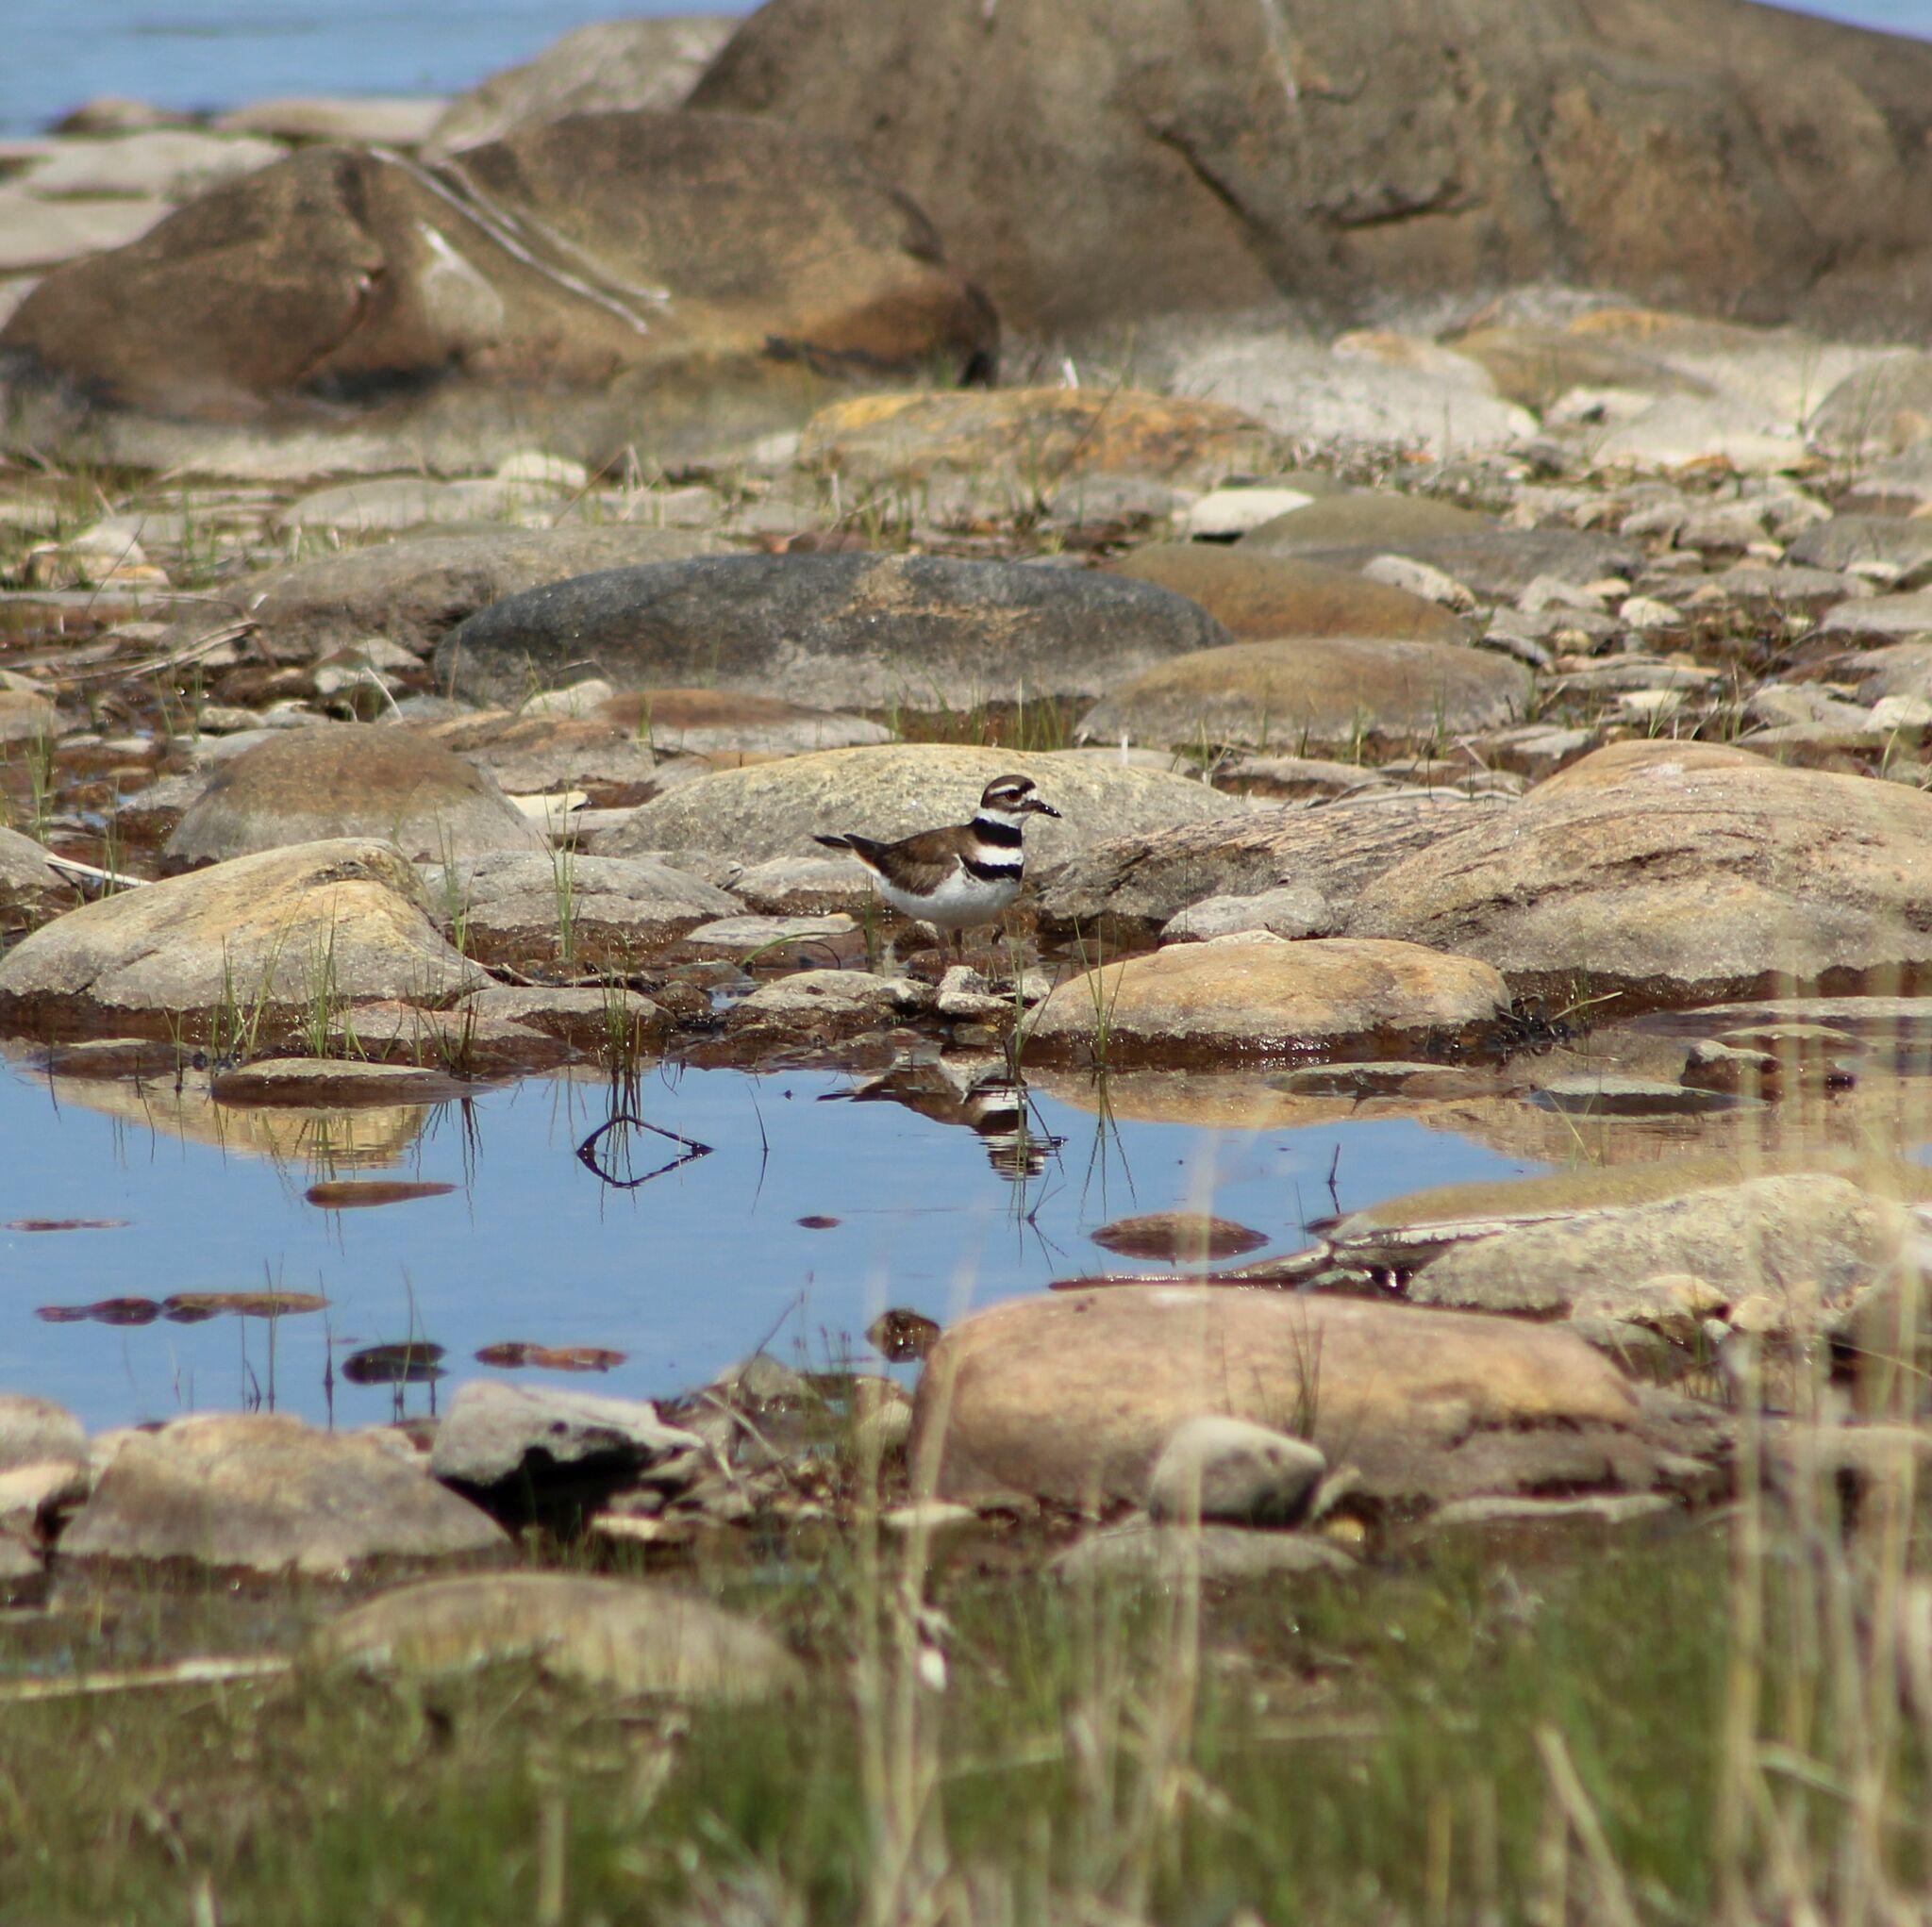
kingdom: Animalia
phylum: Chordata
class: Aves
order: Charadriiformes
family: Charadriidae
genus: Charadrius
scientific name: Charadrius vociferus
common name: Killdeer
